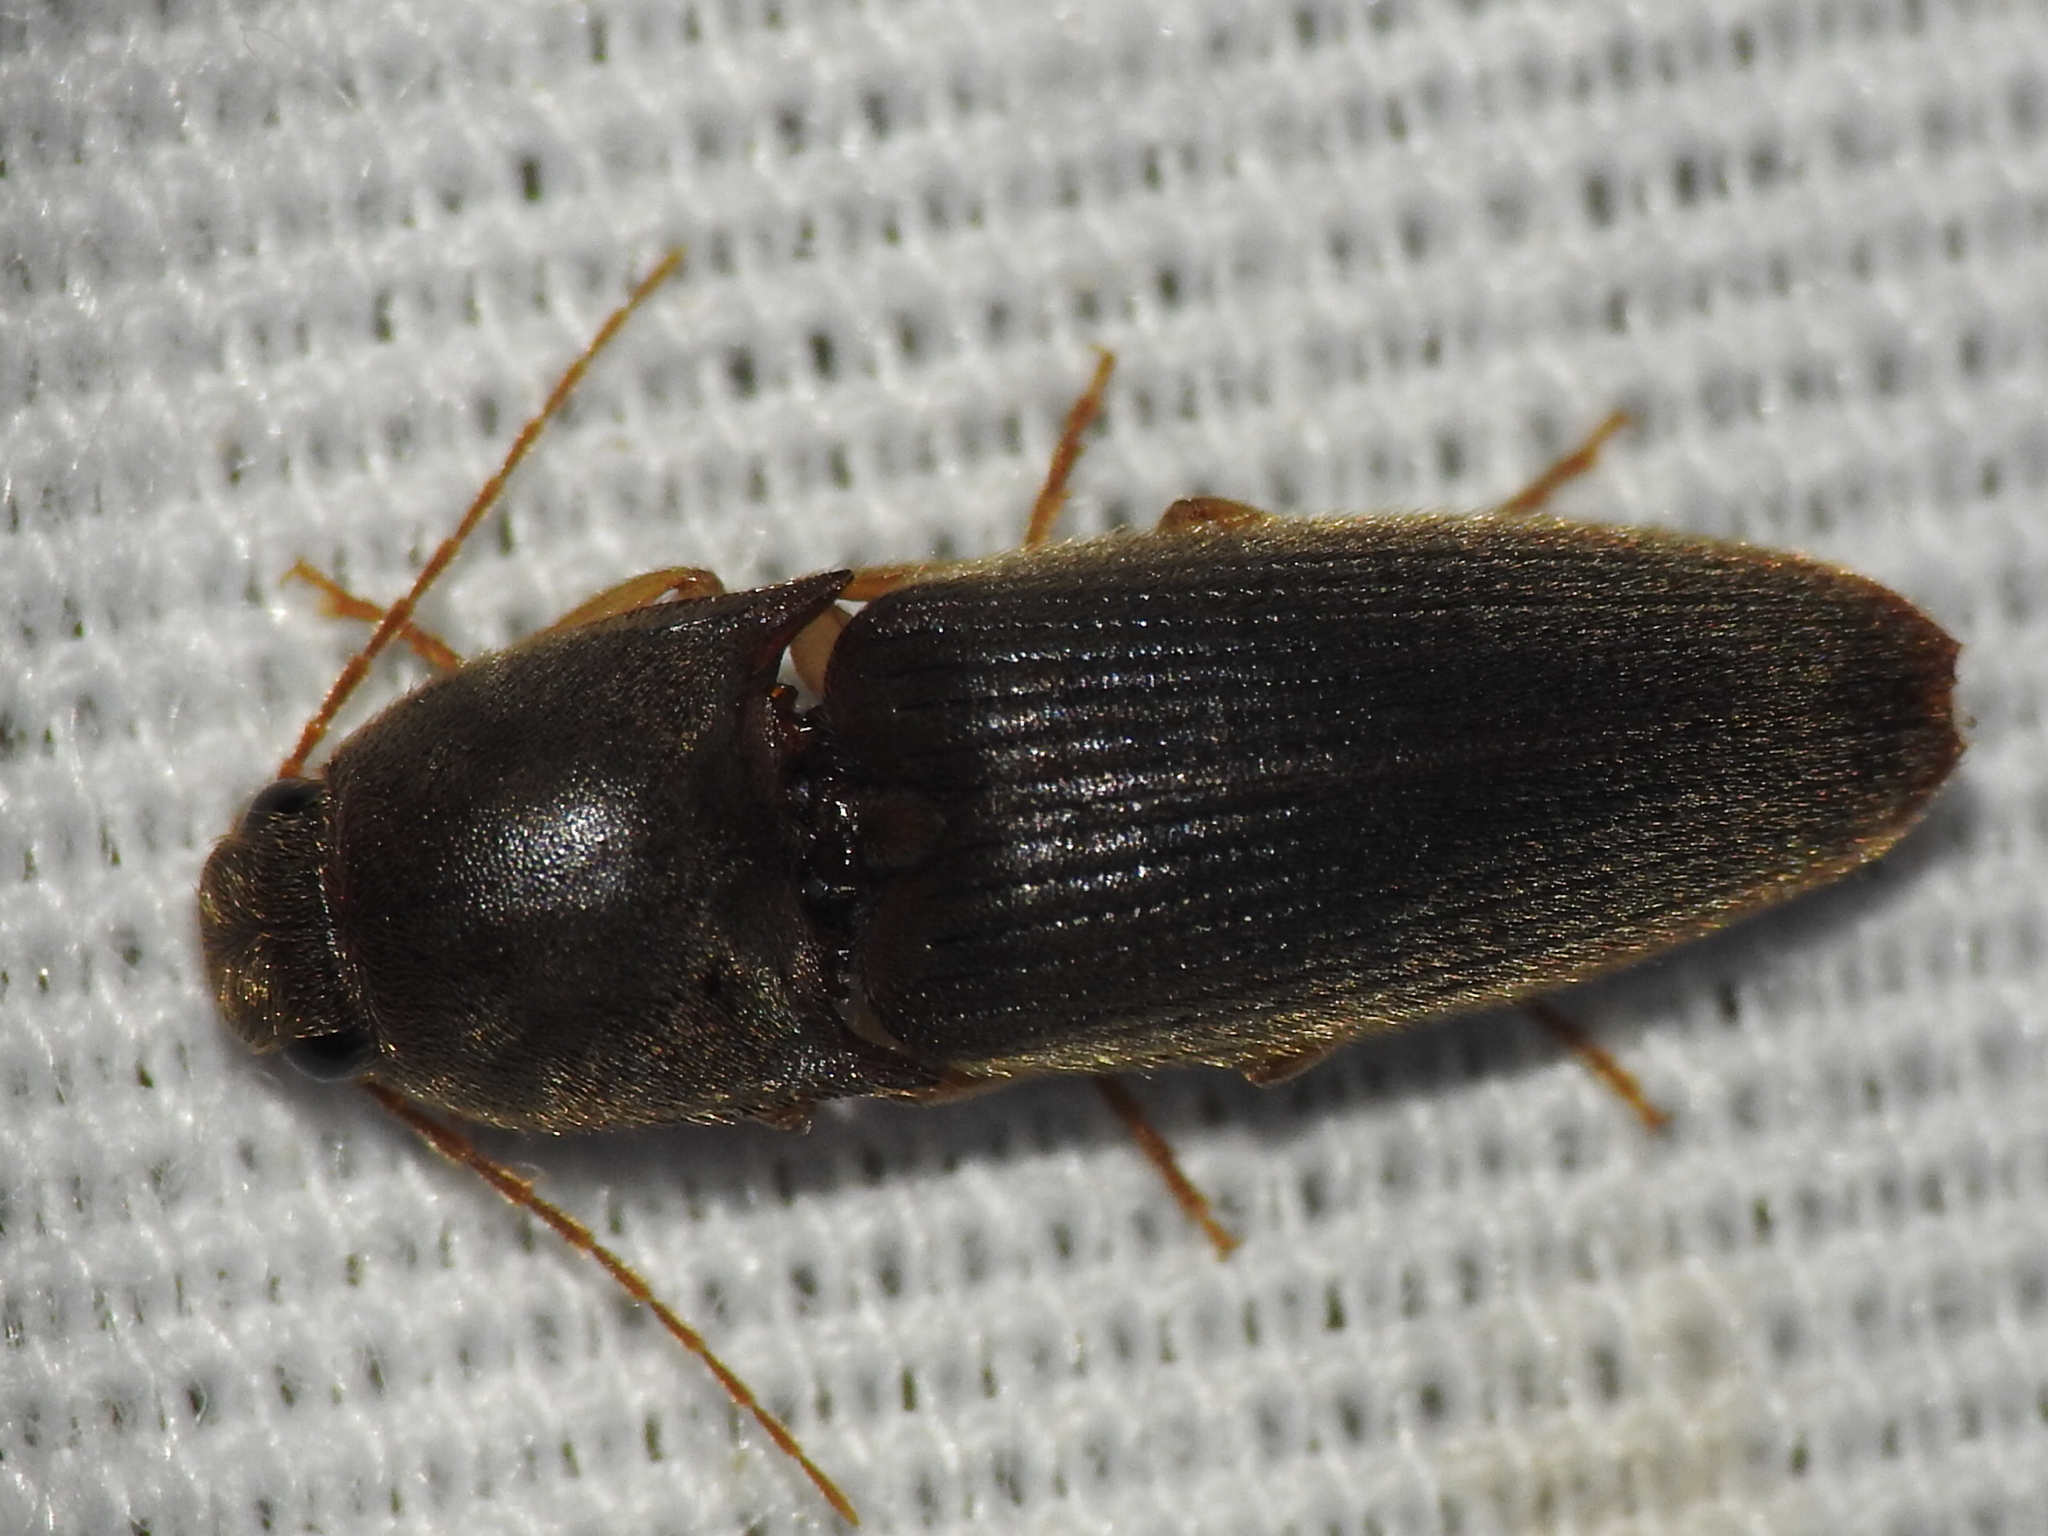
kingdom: Animalia
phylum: Arthropoda
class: Insecta
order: Coleoptera
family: Elateridae
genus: Conoderus
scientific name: Conoderus exsul
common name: Click beetle
